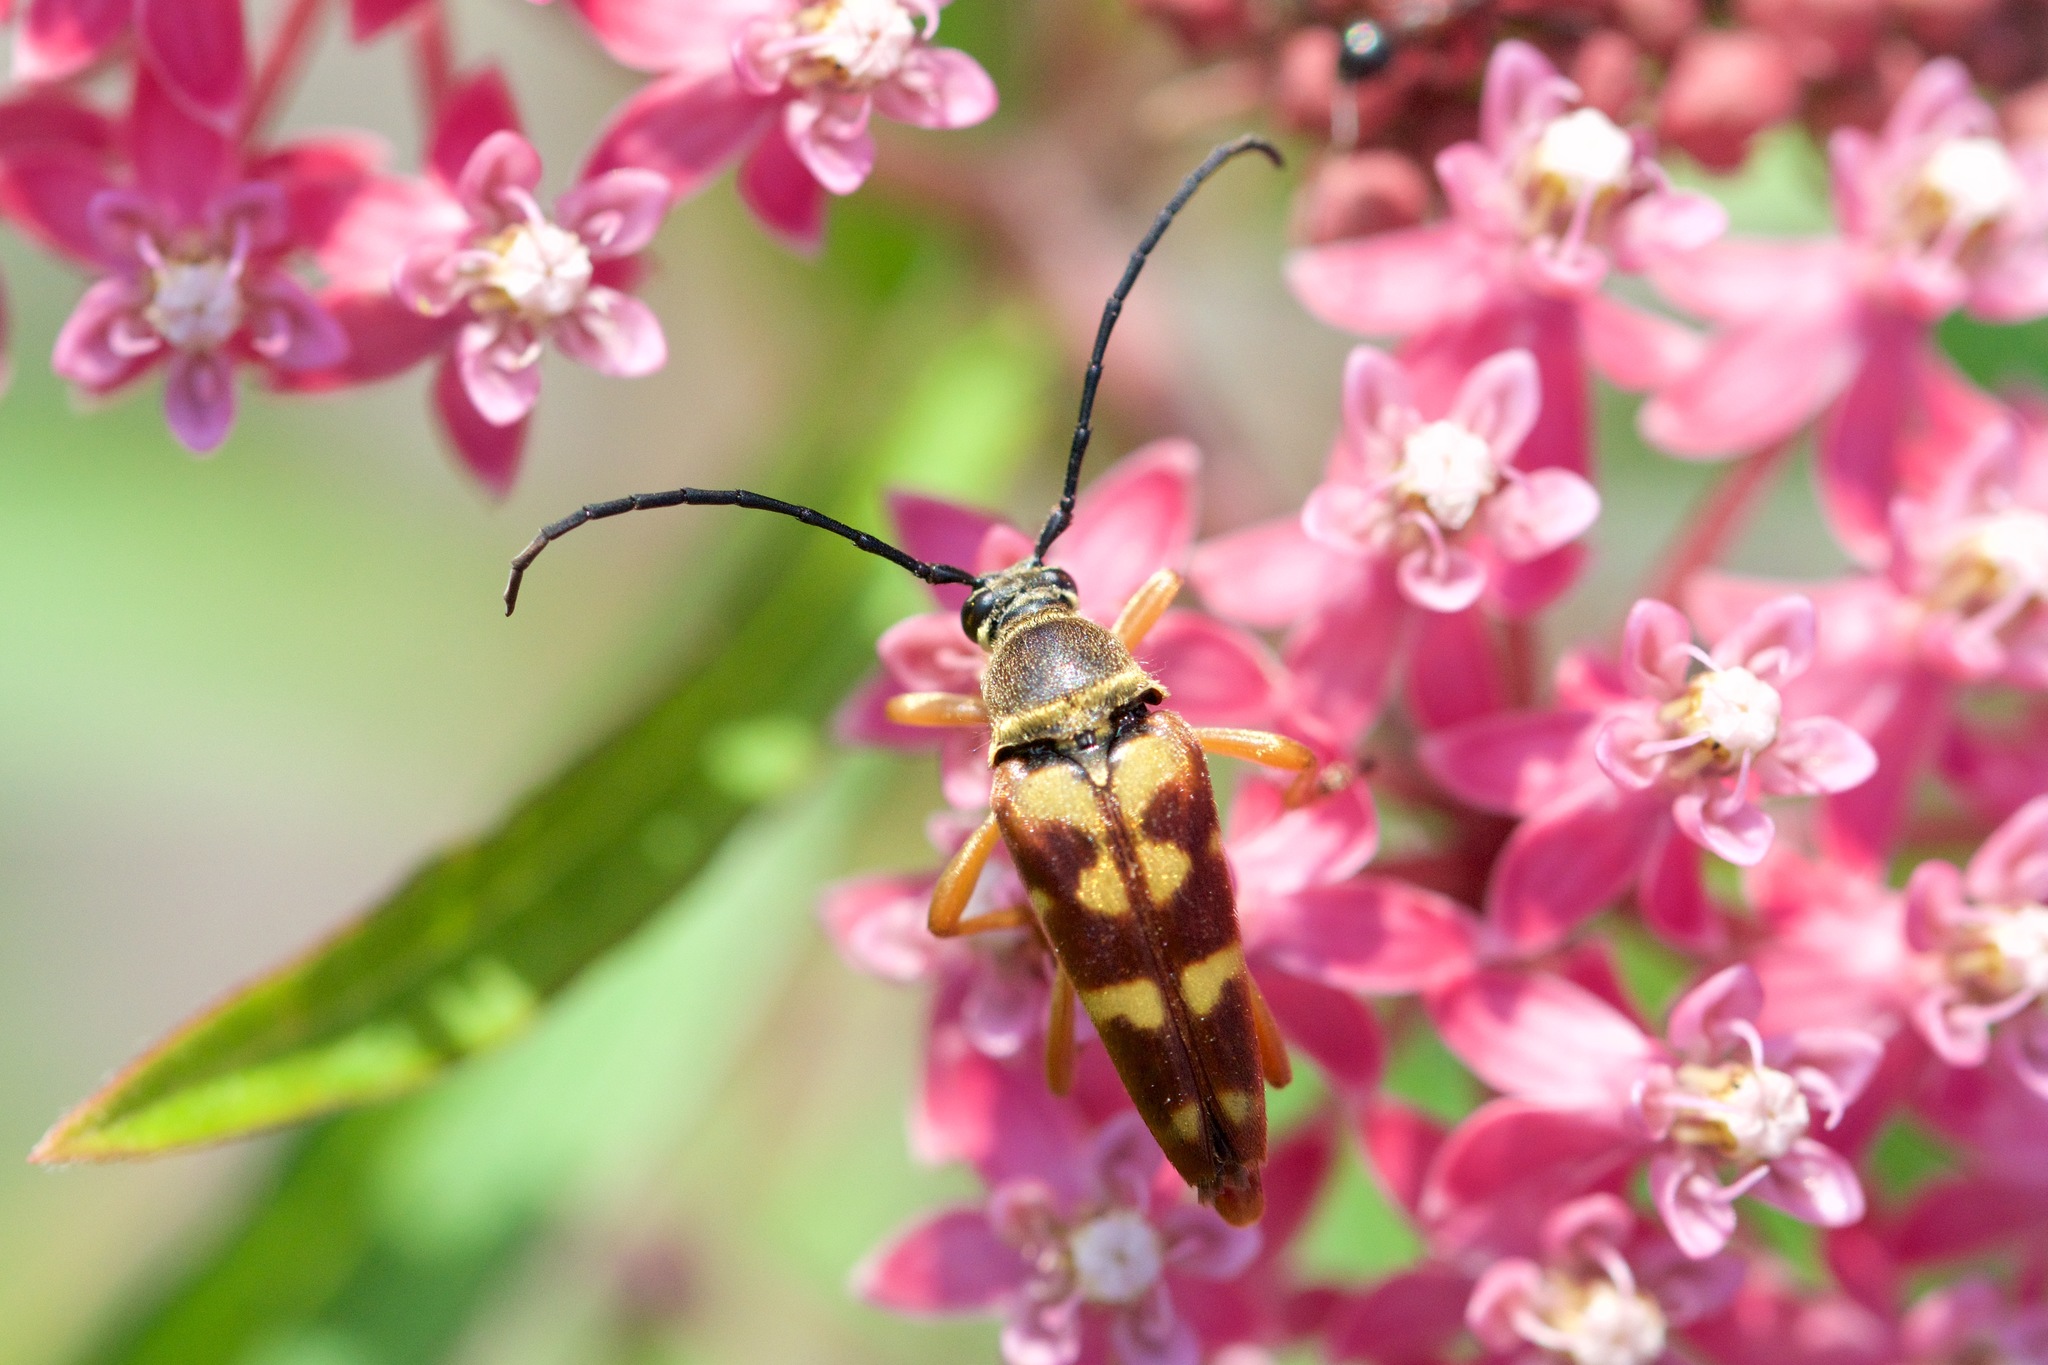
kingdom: Animalia
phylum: Arthropoda
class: Insecta
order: Coleoptera
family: Cerambycidae
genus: Typocerus
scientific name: Typocerus velutinus
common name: Banded longhorn beetle
